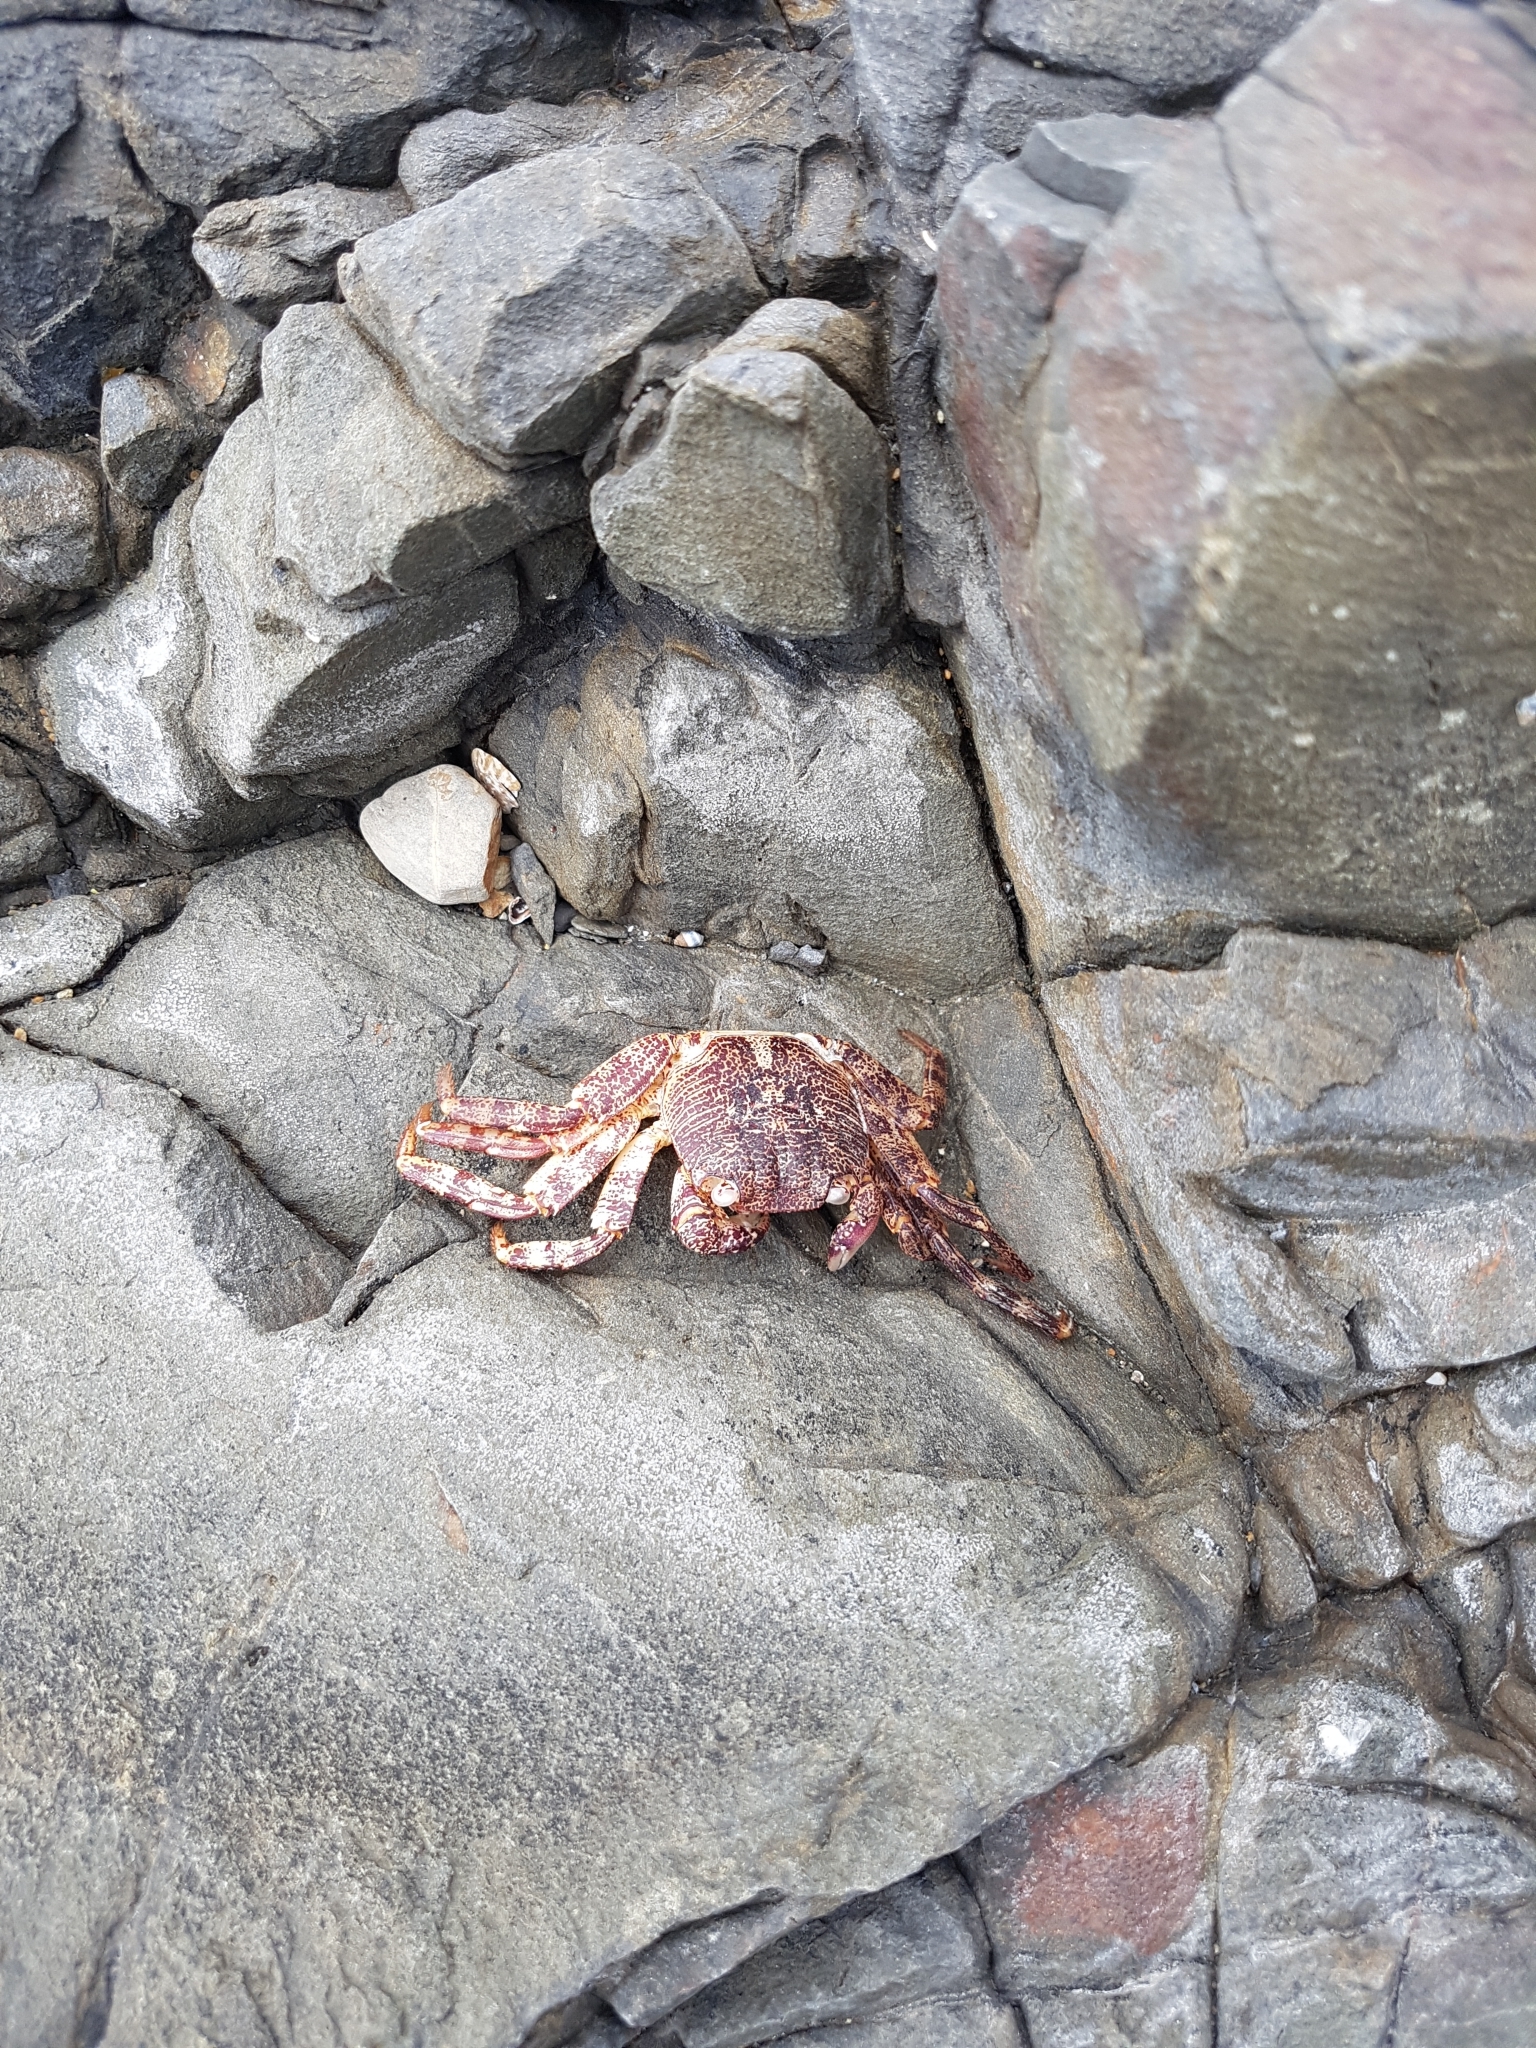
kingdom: Animalia
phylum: Arthropoda
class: Malacostraca
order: Decapoda
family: Grapsidae
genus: Leptograpsus
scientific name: Leptograpsus variegatus
